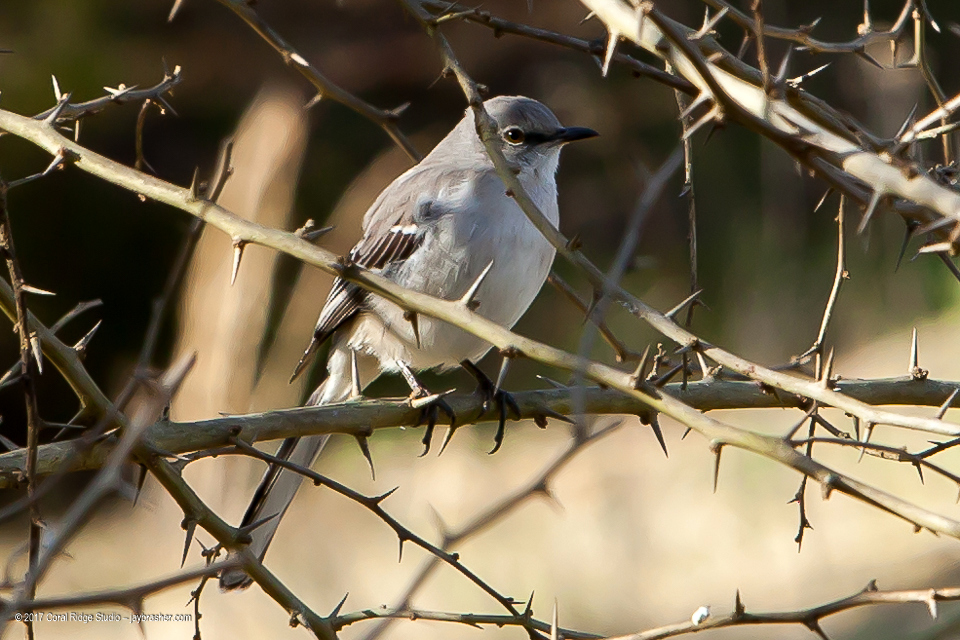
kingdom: Animalia
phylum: Chordata
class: Aves
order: Passeriformes
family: Mimidae
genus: Mimus
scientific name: Mimus polyglottos
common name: Northern mockingbird
